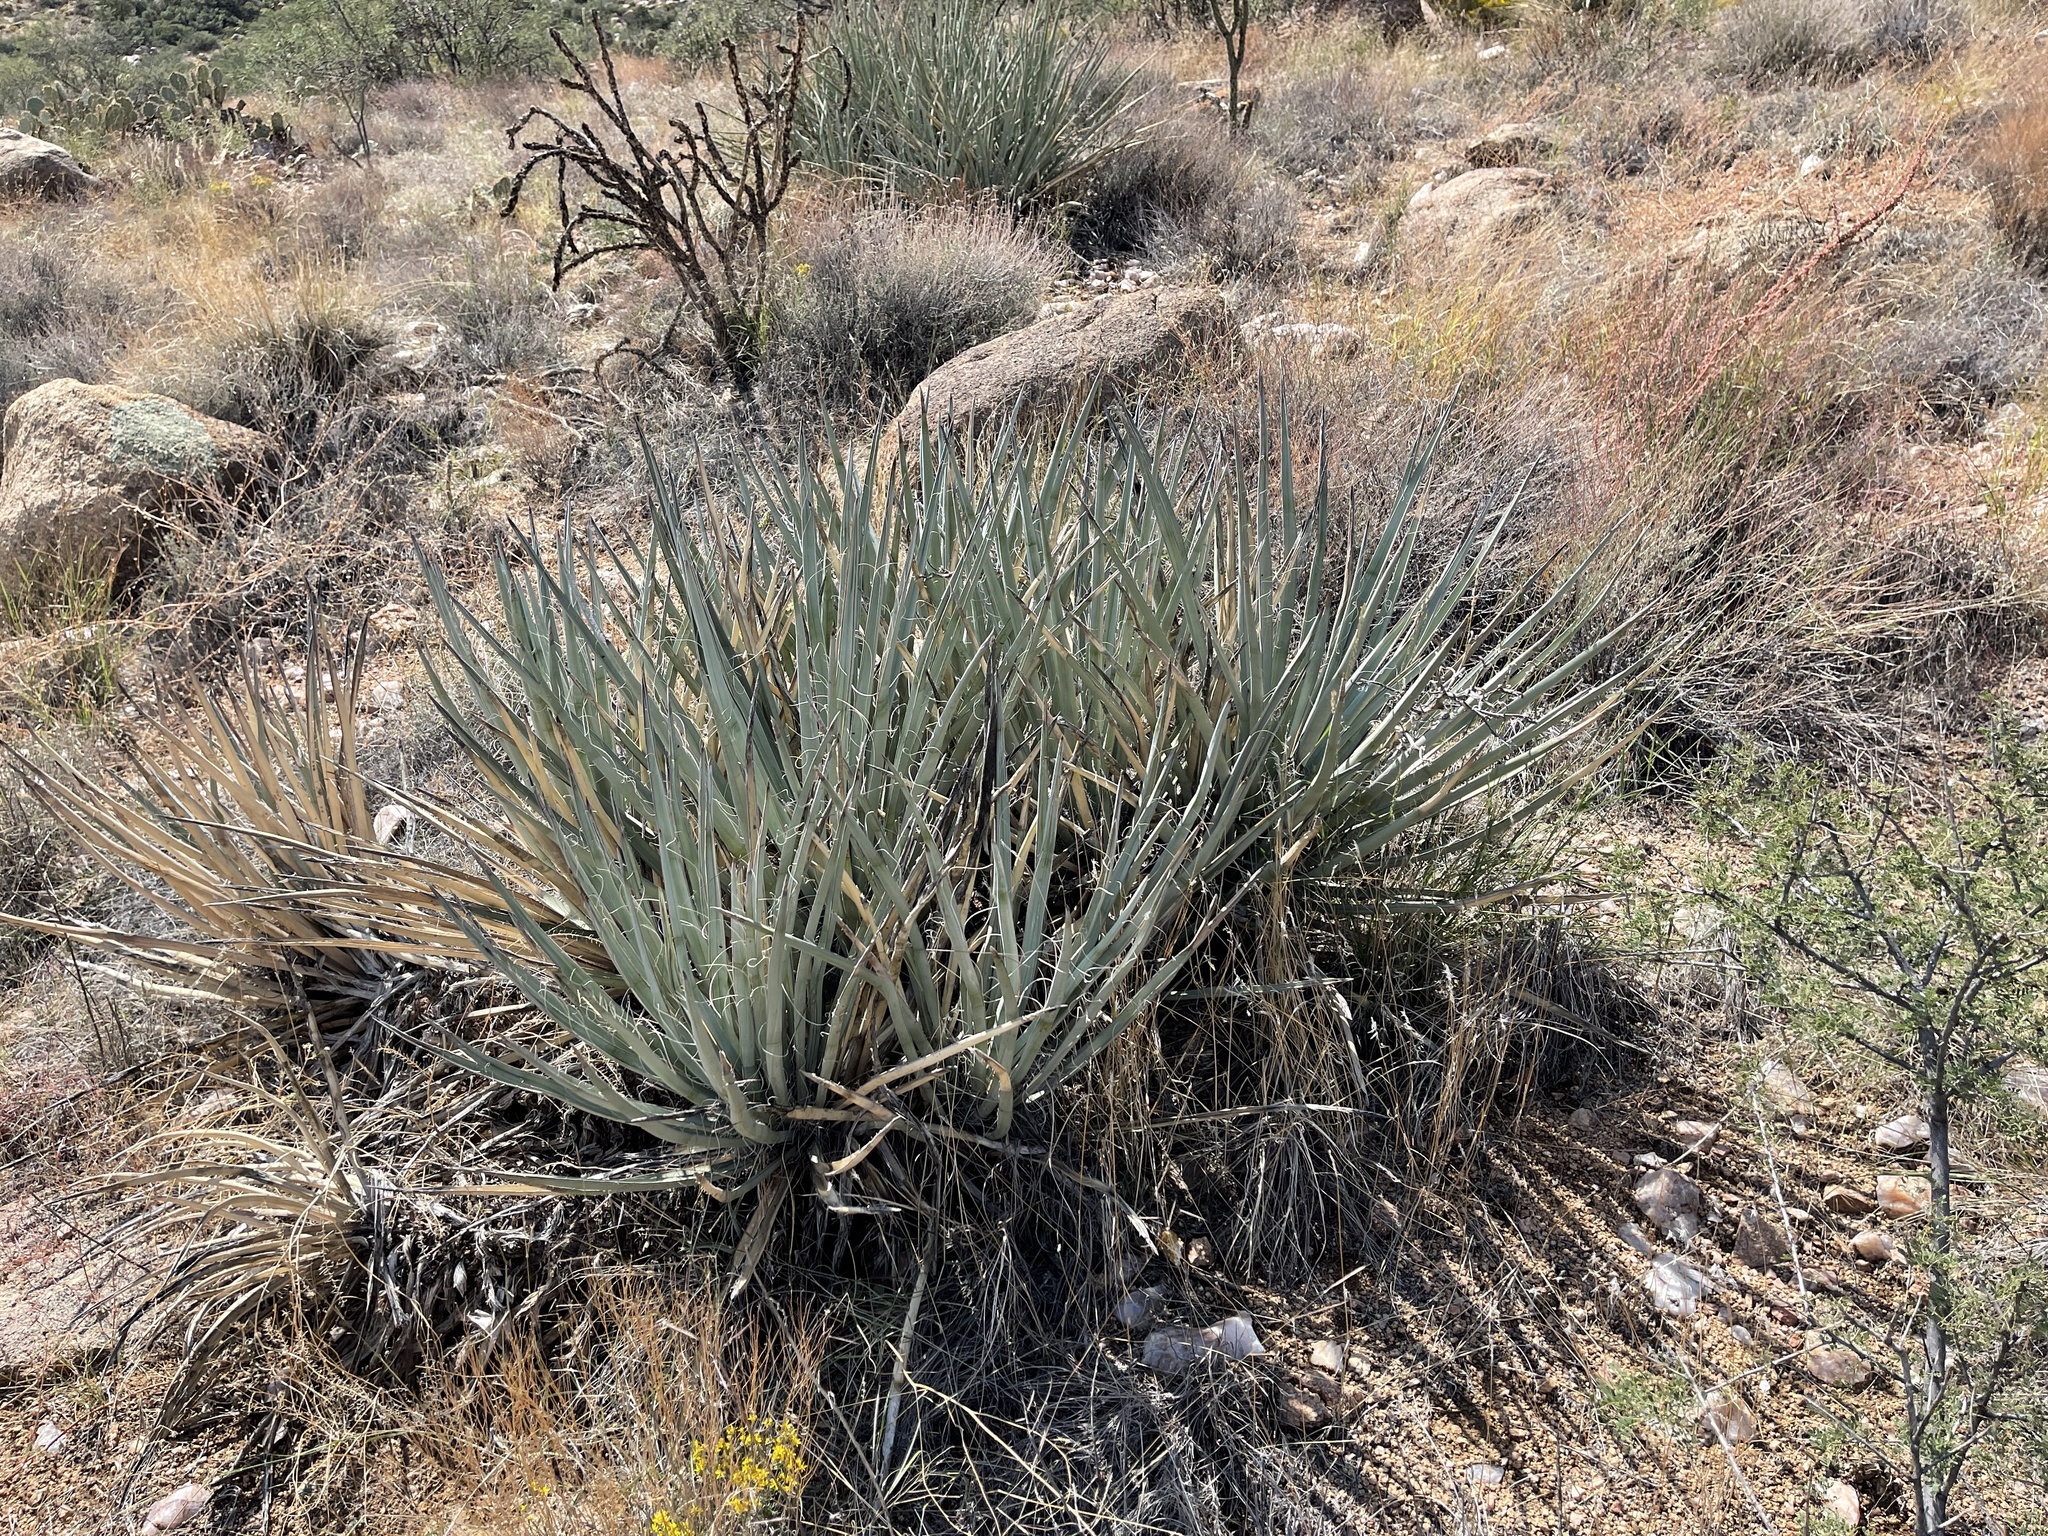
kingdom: Plantae
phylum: Tracheophyta
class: Liliopsida
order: Asparagales
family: Asparagaceae
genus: Yucca
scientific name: Yucca baccata
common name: Banana yucca
